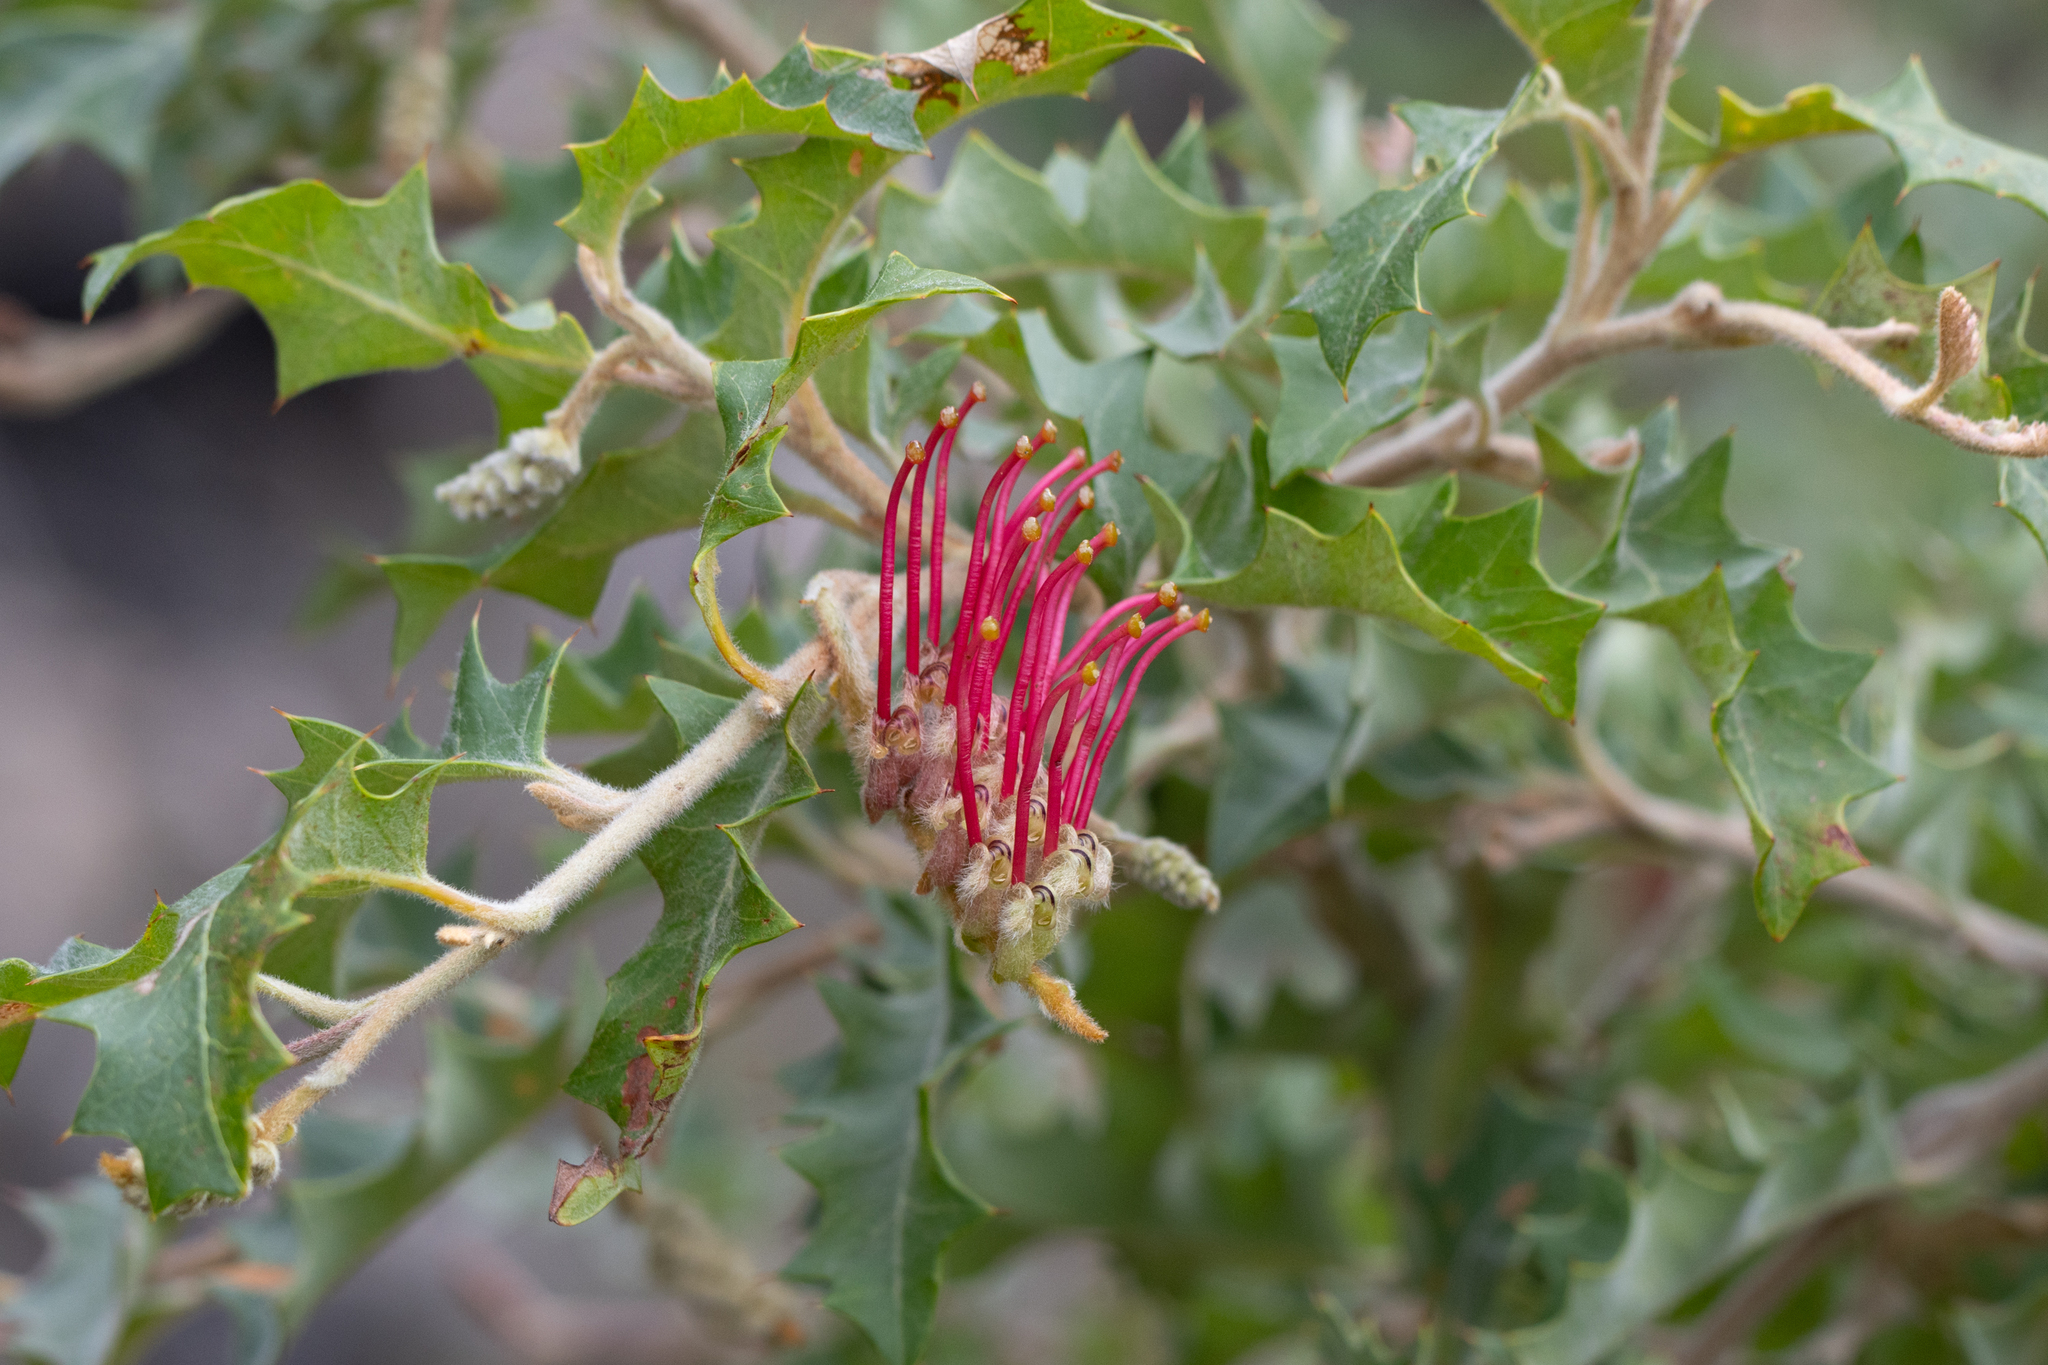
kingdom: Plantae
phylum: Tracheophyta
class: Magnoliopsida
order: Proteales
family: Proteaceae
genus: Grevillea
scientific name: Grevillea aquifolium
